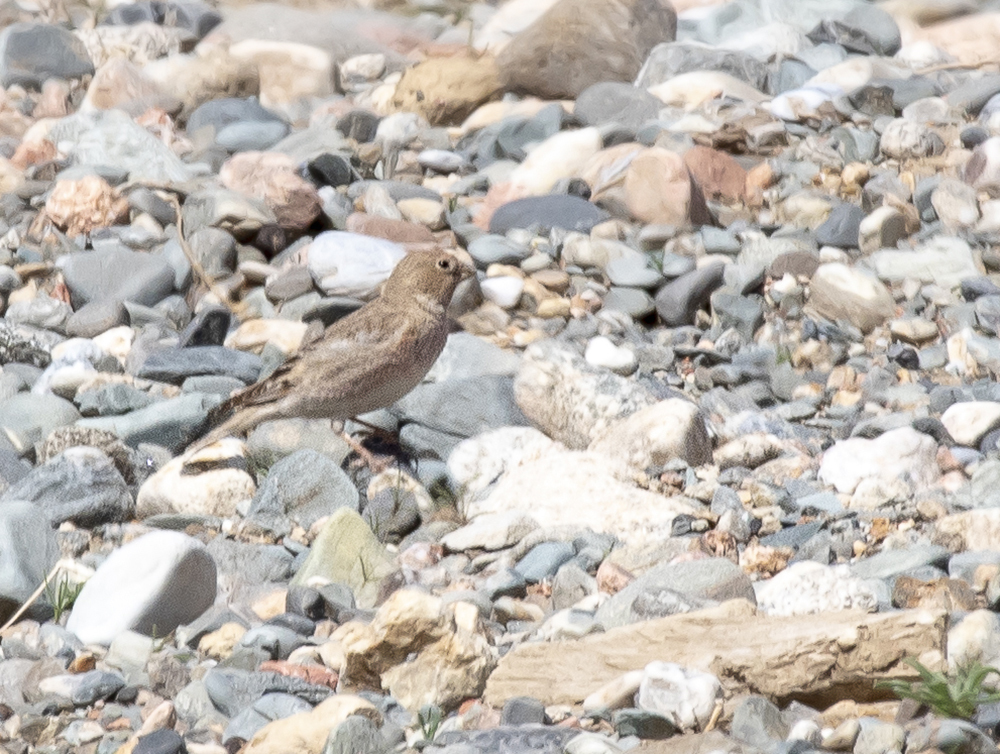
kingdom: Animalia
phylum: Chordata
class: Aves
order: Passeriformes
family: Fringillidae
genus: Bucanetes
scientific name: Bucanetes mongolicus
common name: Mongolian finch
